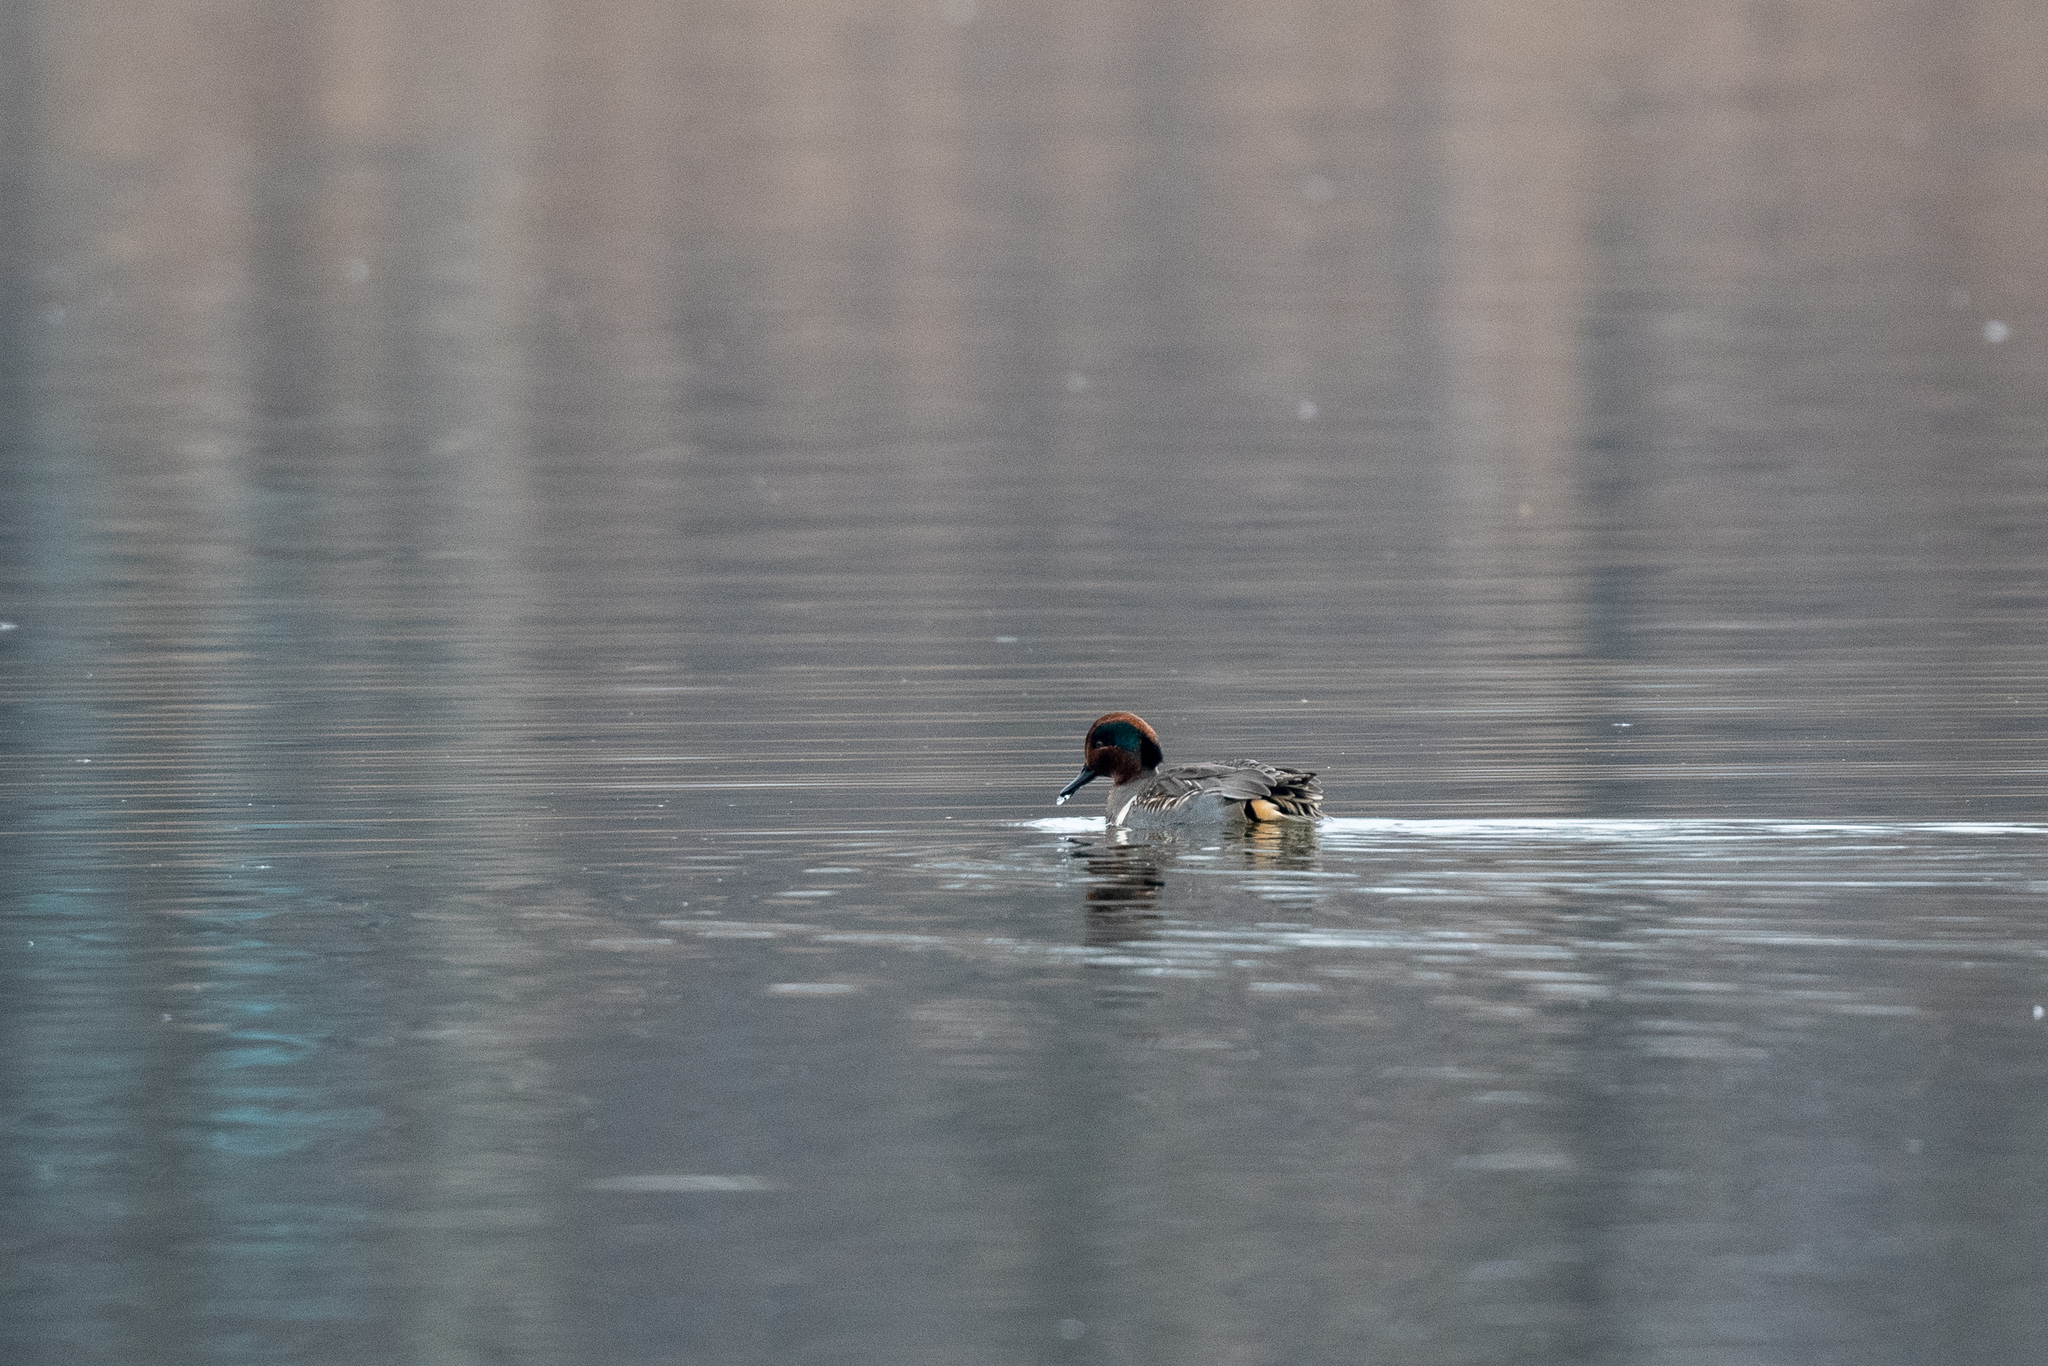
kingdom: Animalia
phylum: Chordata
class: Aves
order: Anseriformes
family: Anatidae
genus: Anas
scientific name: Anas crecca
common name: Eurasian teal
